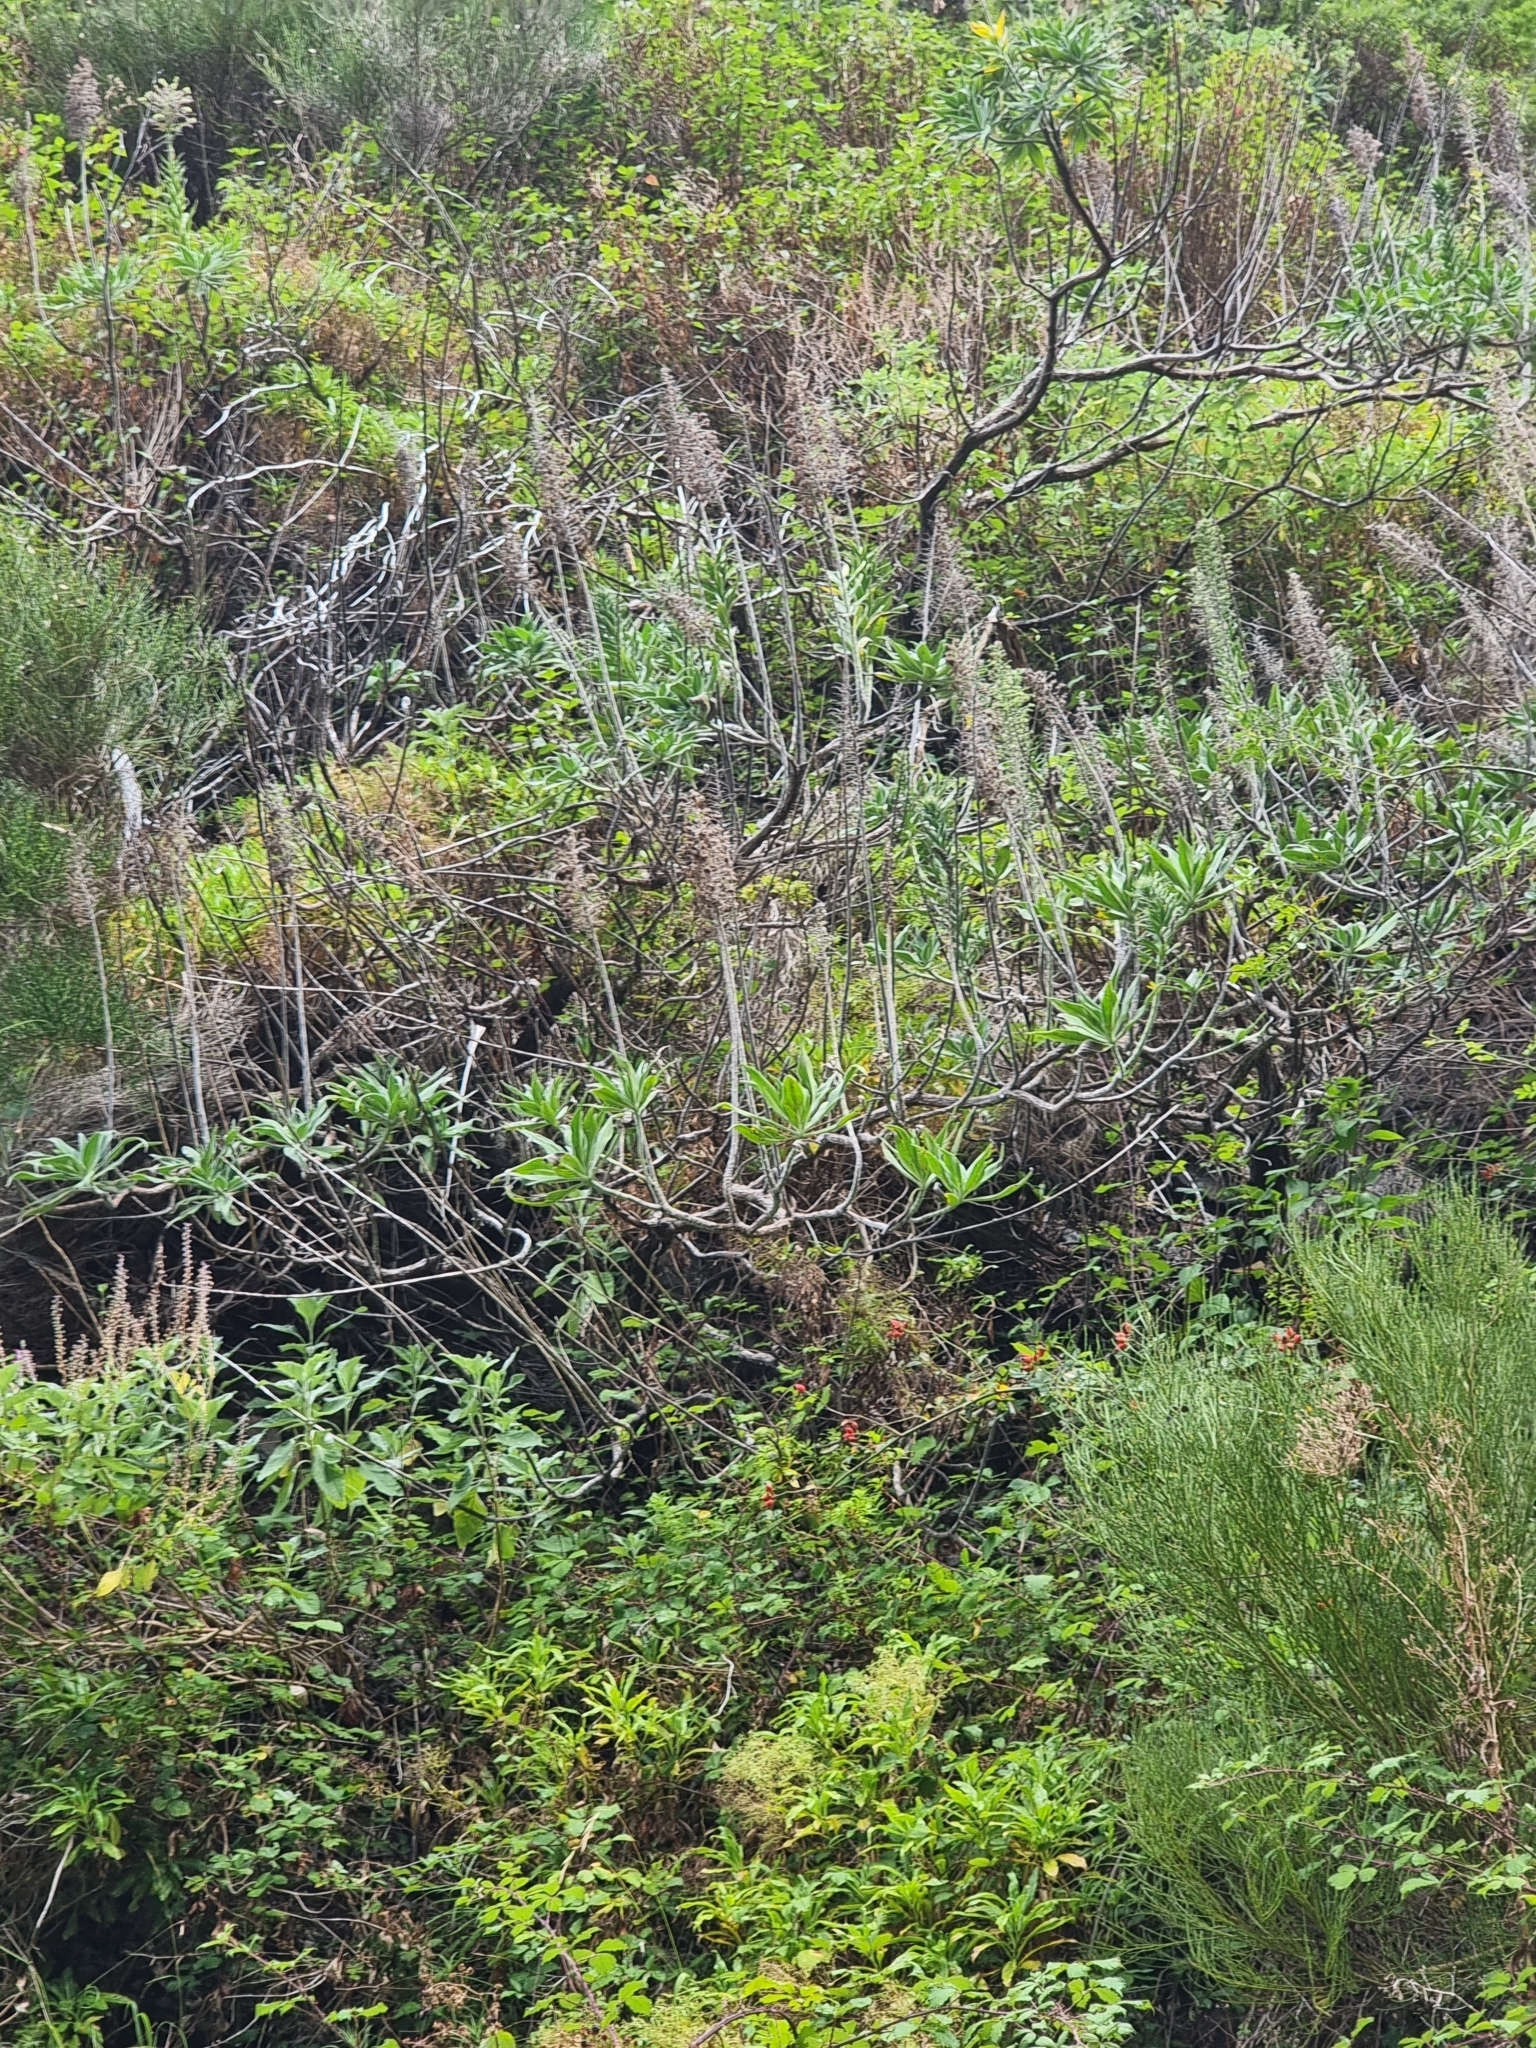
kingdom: Plantae
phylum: Tracheophyta
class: Magnoliopsida
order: Boraginales
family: Boraginaceae
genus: Echium
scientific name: Echium candicans
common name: Pride of madeira
